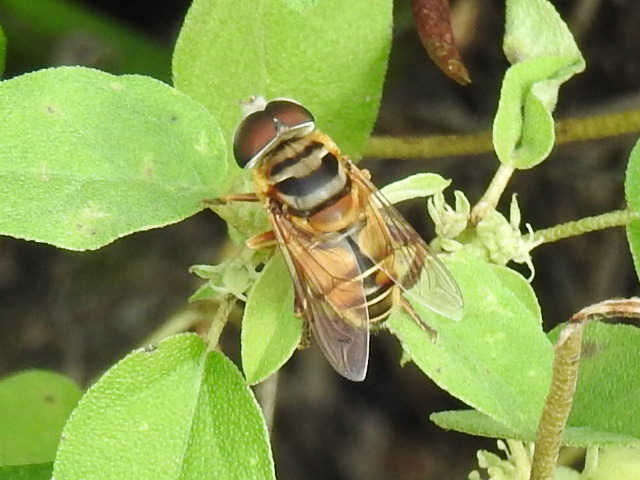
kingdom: Animalia
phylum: Arthropoda
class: Insecta
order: Diptera
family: Syrphidae
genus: Palpada
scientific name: Palpada vinetorum
